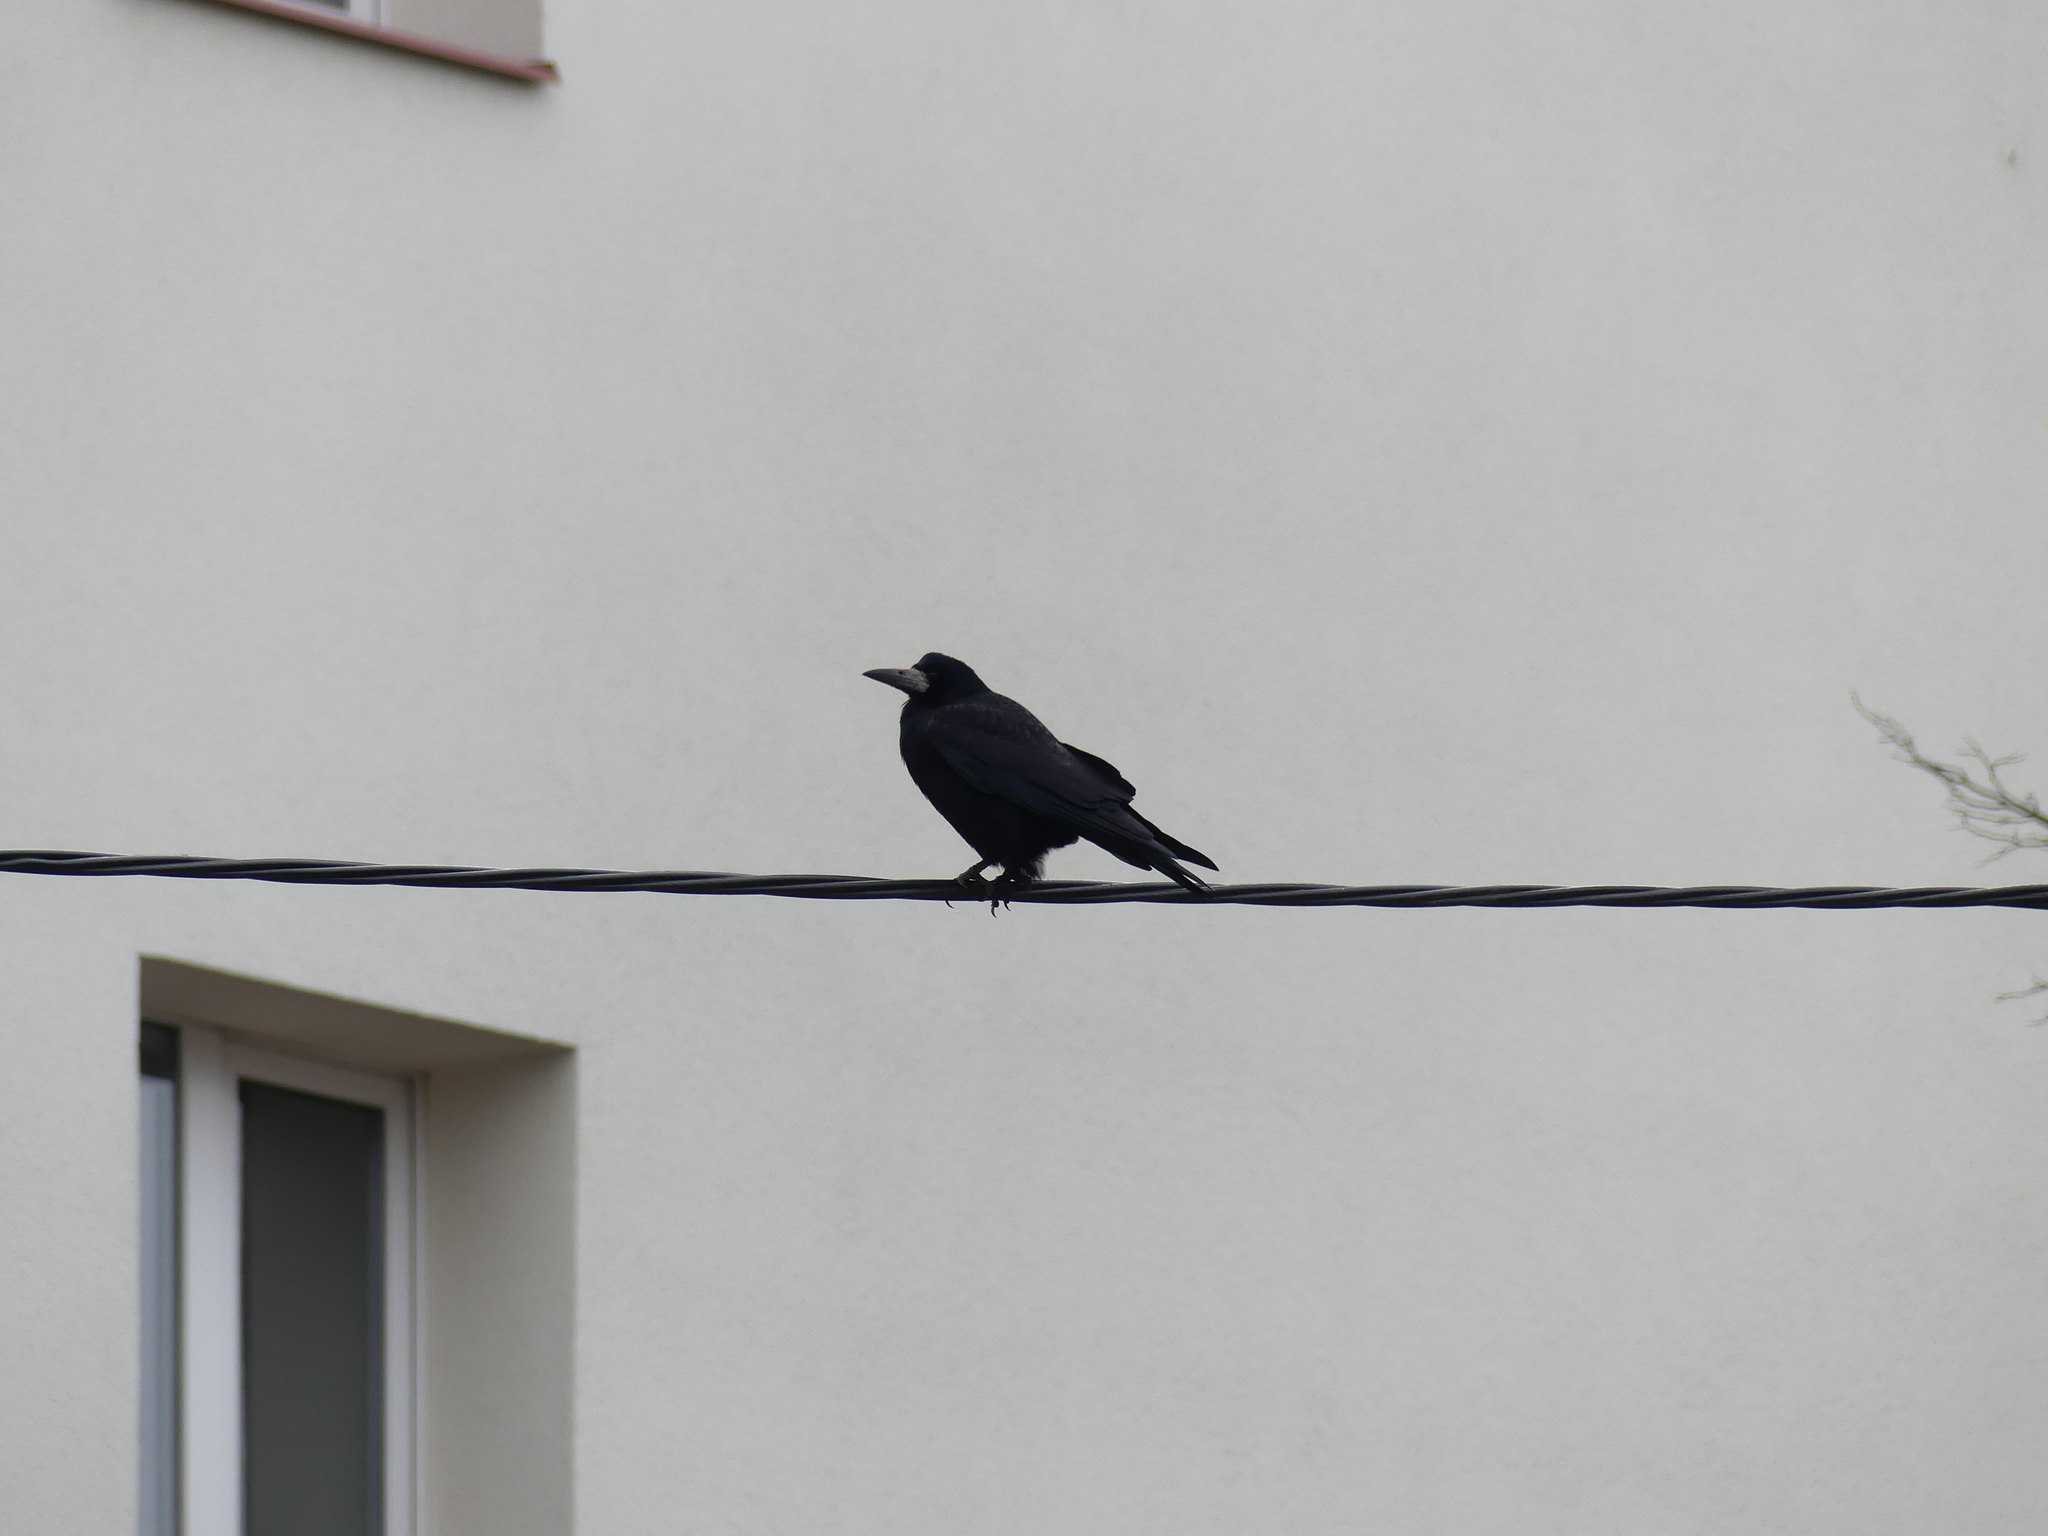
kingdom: Animalia
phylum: Chordata
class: Aves
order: Passeriformes
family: Corvidae
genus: Corvus
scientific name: Corvus frugilegus
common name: Rook
